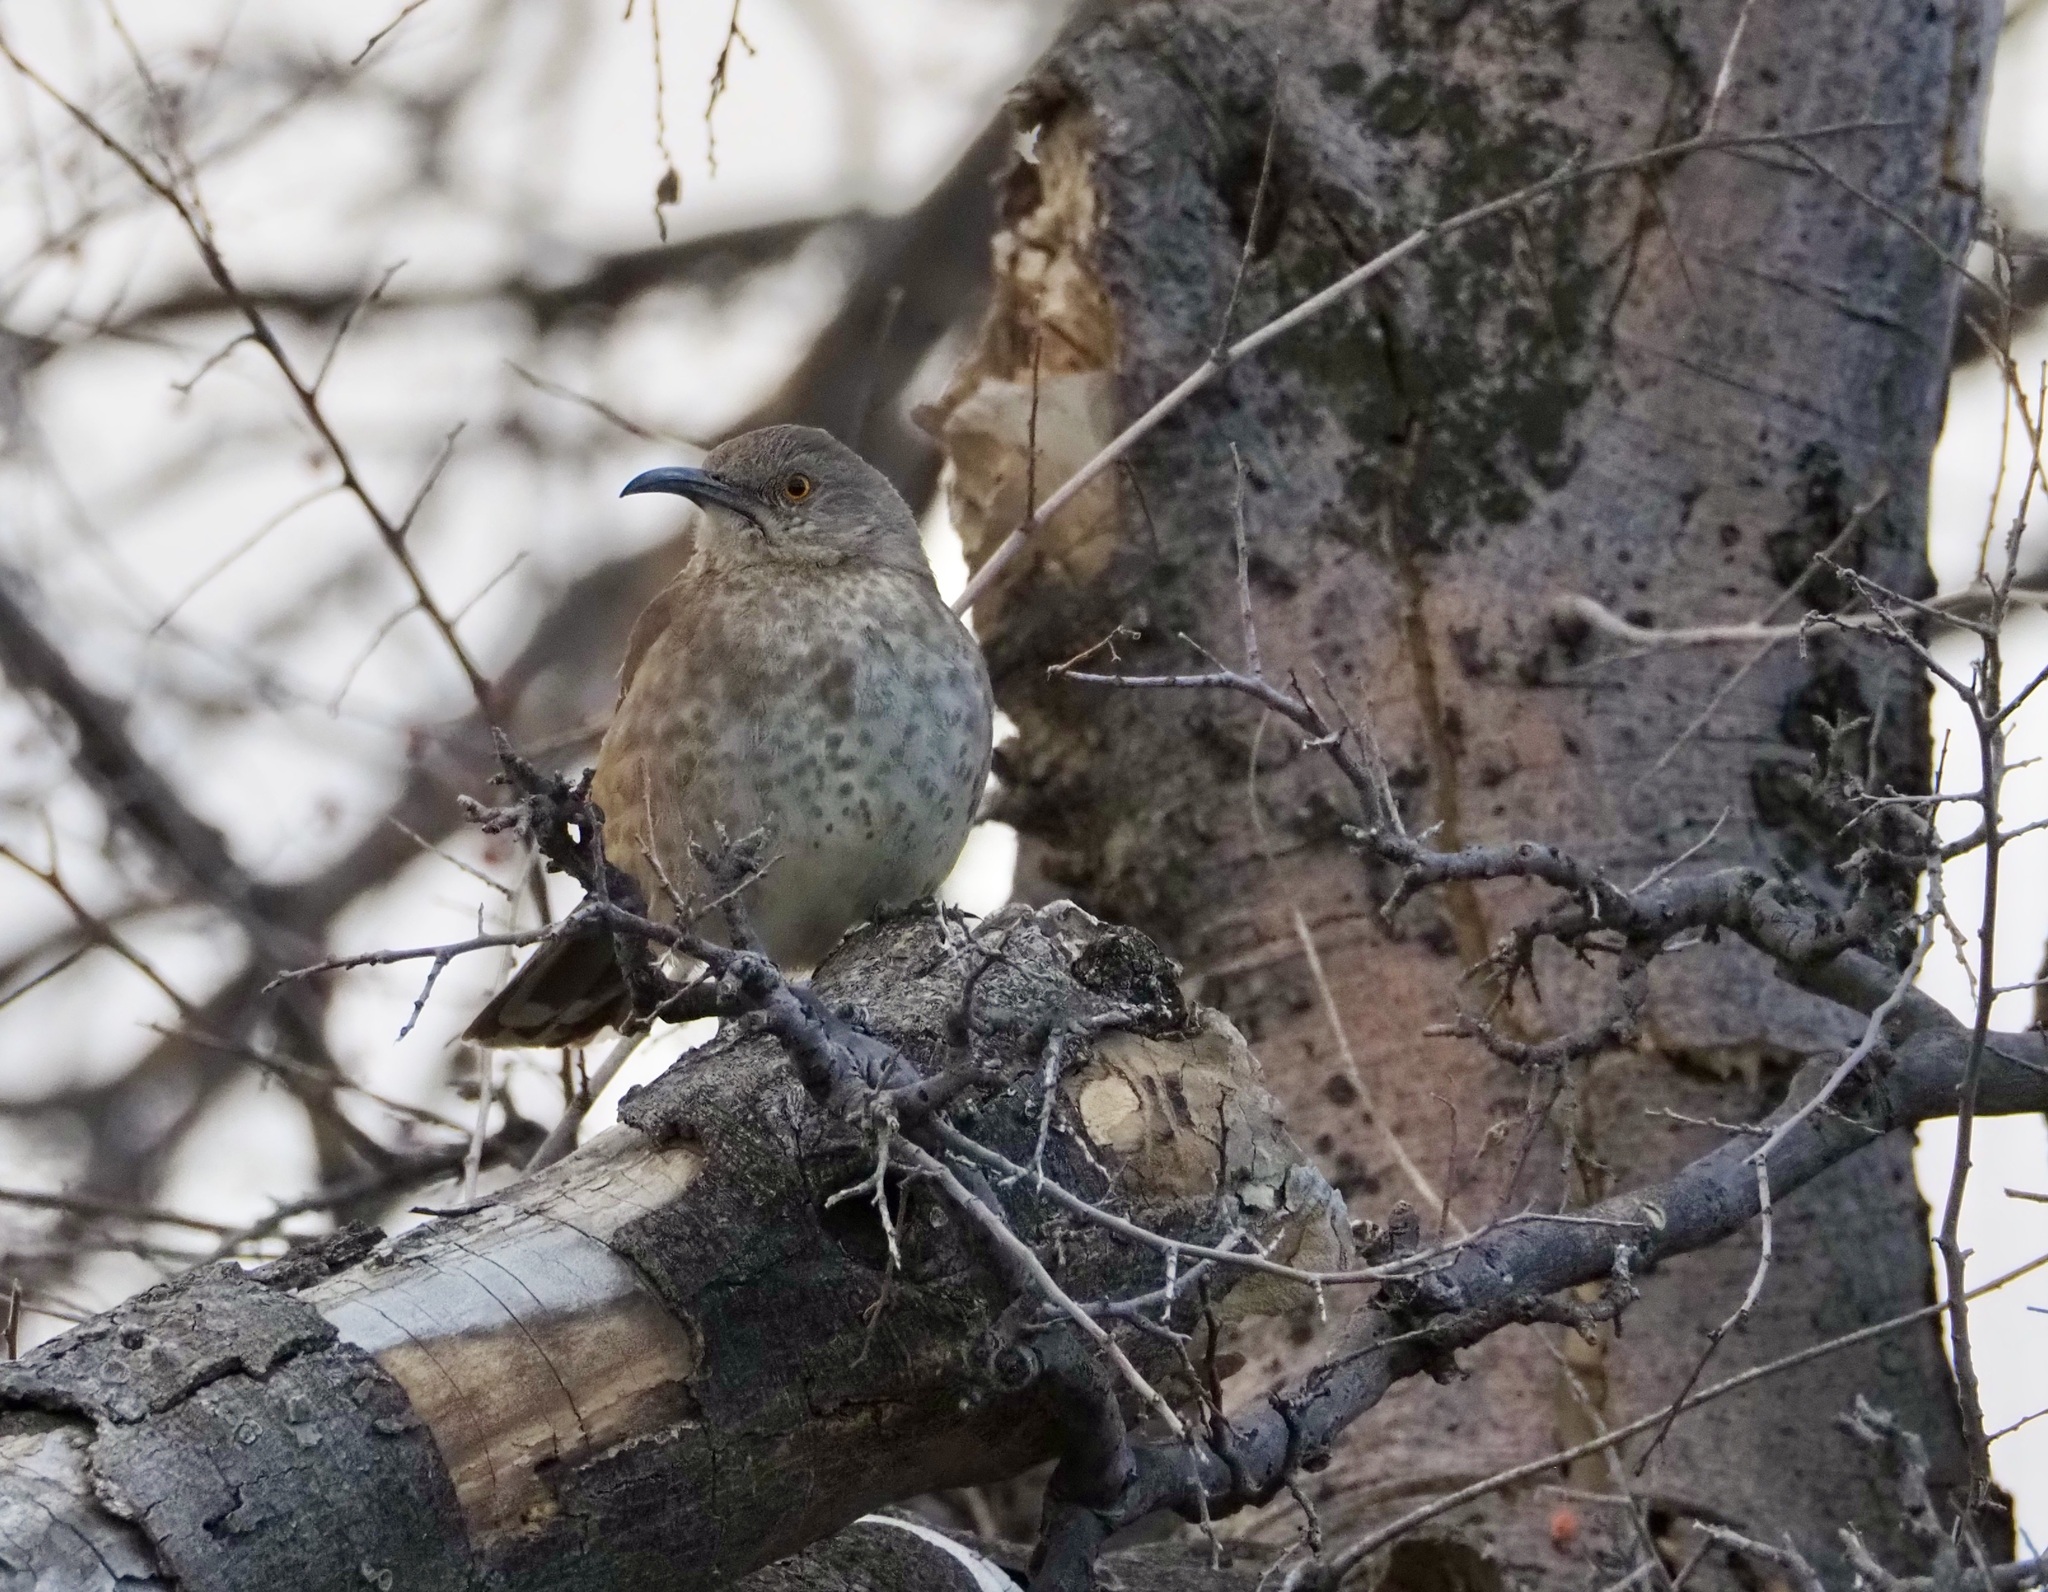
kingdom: Animalia
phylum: Chordata
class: Aves
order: Passeriformes
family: Mimidae
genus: Toxostoma
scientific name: Toxostoma curvirostre
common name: Curve-billed thrasher
